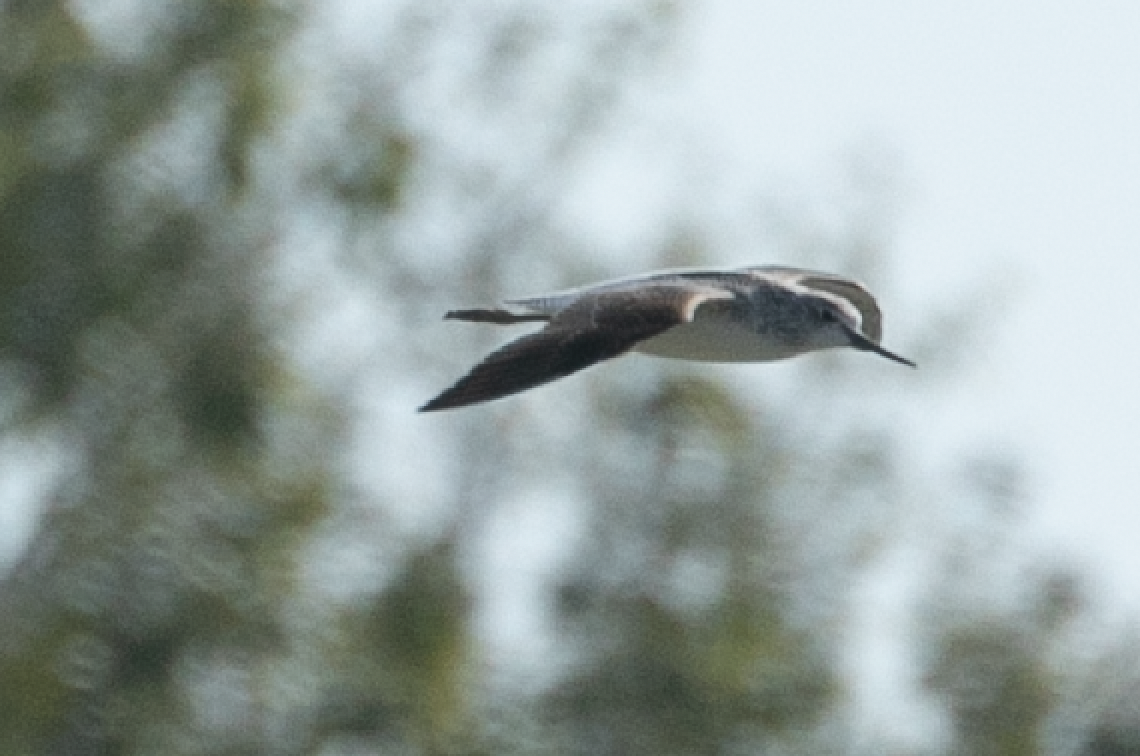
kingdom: Animalia
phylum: Chordata
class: Aves
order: Charadriiformes
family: Scolopacidae
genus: Tringa
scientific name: Tringa nebularia
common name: Common greenshank
